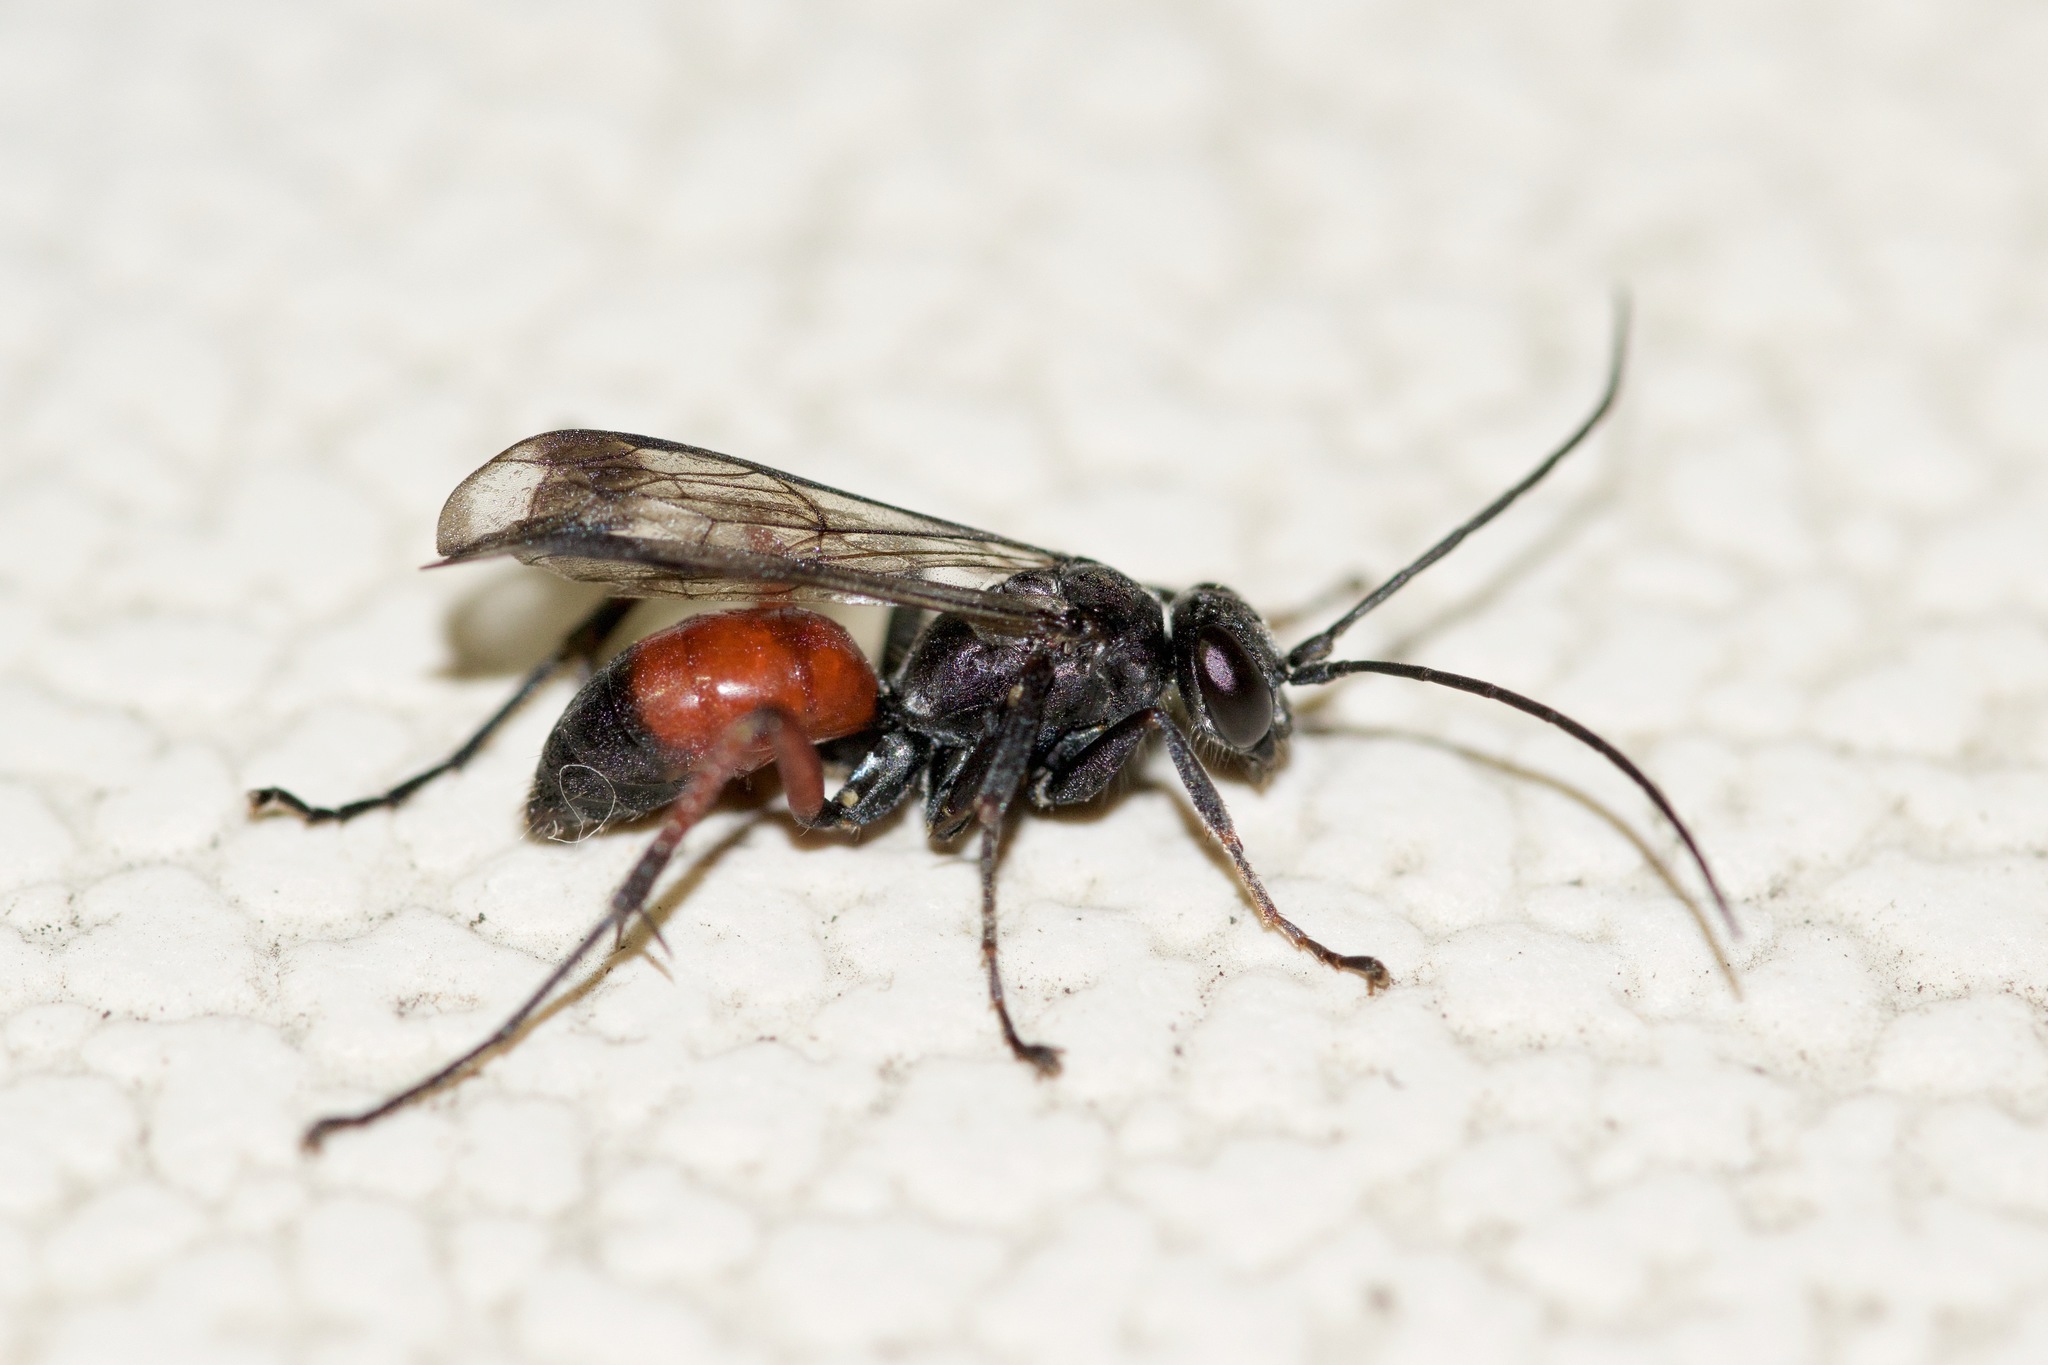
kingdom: Animalia
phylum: Arthropoda
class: Insecta
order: Hymenoptera
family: Pompilidae
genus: Caliadurgus
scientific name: Caliadurgus fasciatellus
